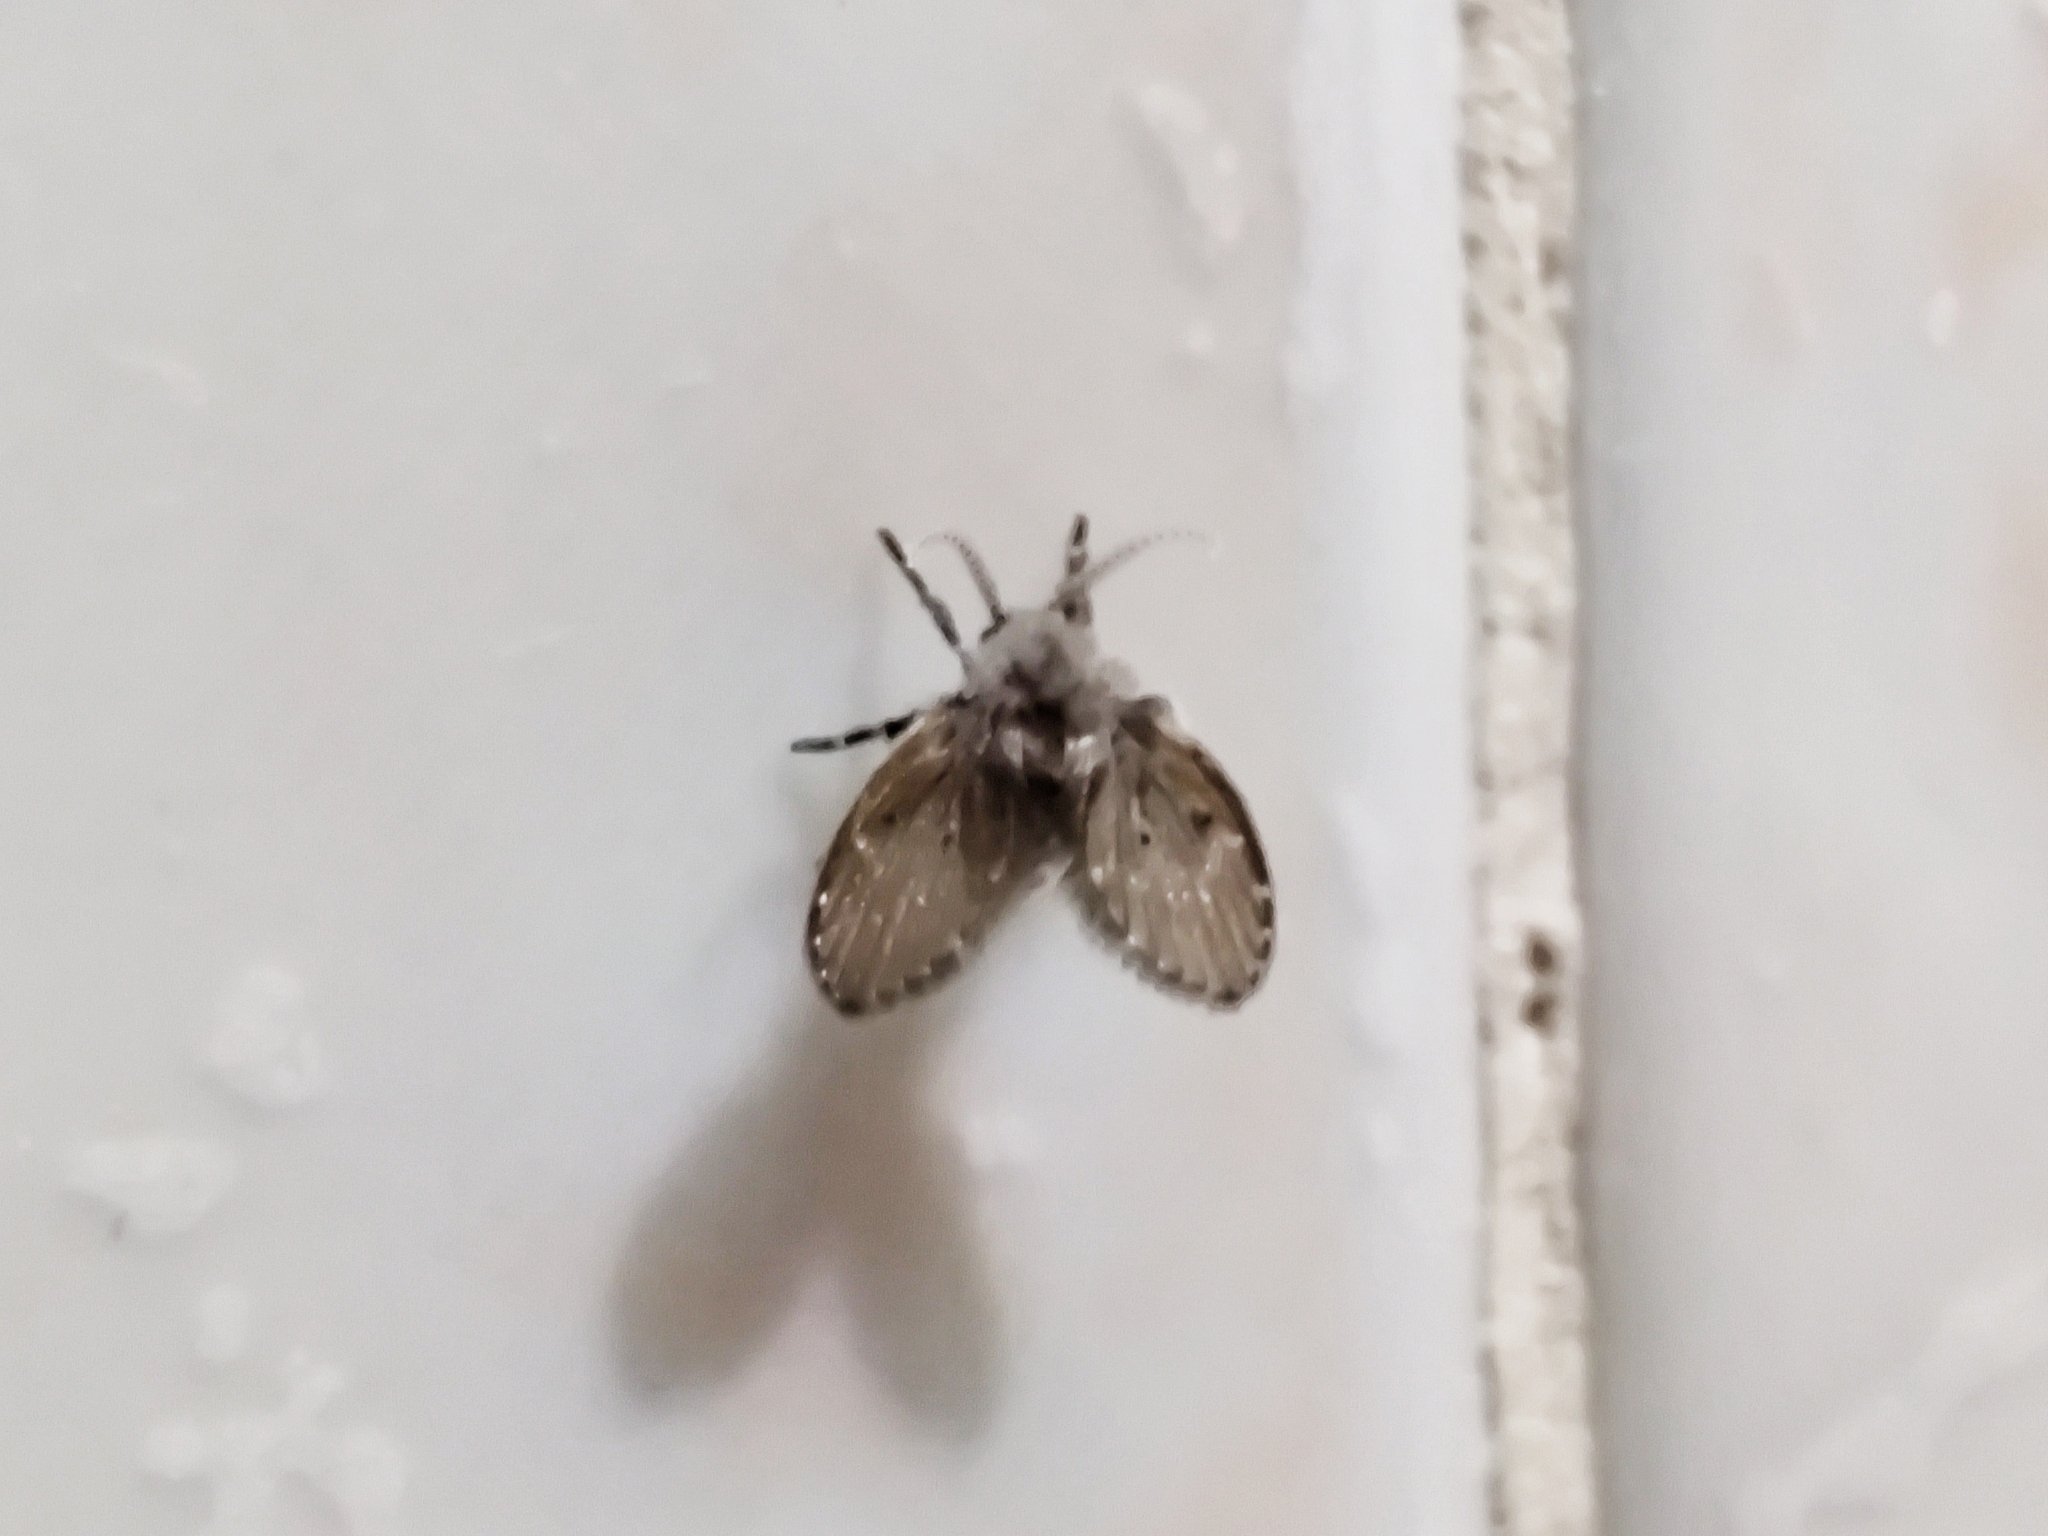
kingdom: Animalia
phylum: Arthropoda
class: Insecta
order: Diptera
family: Psychodidae
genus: Clogmia
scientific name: Clogmia albipunctatus
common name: White-spotted moth fly
